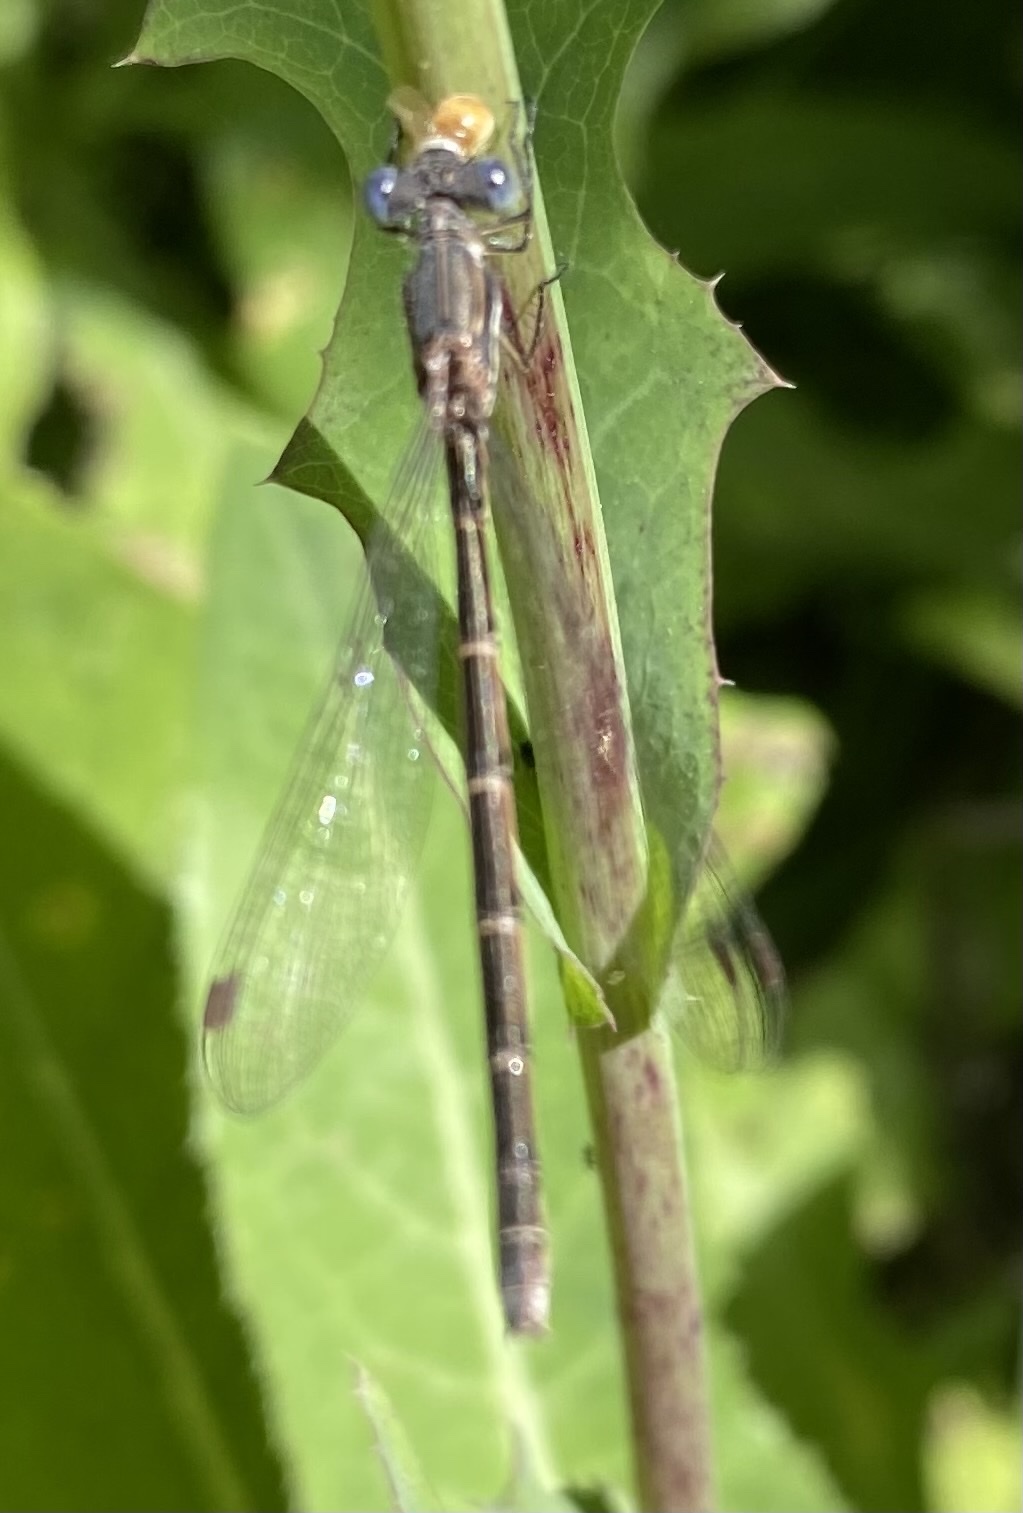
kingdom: Animalia
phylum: Arthropoda
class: Insecta
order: Odonata
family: Lestidae
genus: Lestes
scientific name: Lestes congener
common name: Spotted spreadwing
